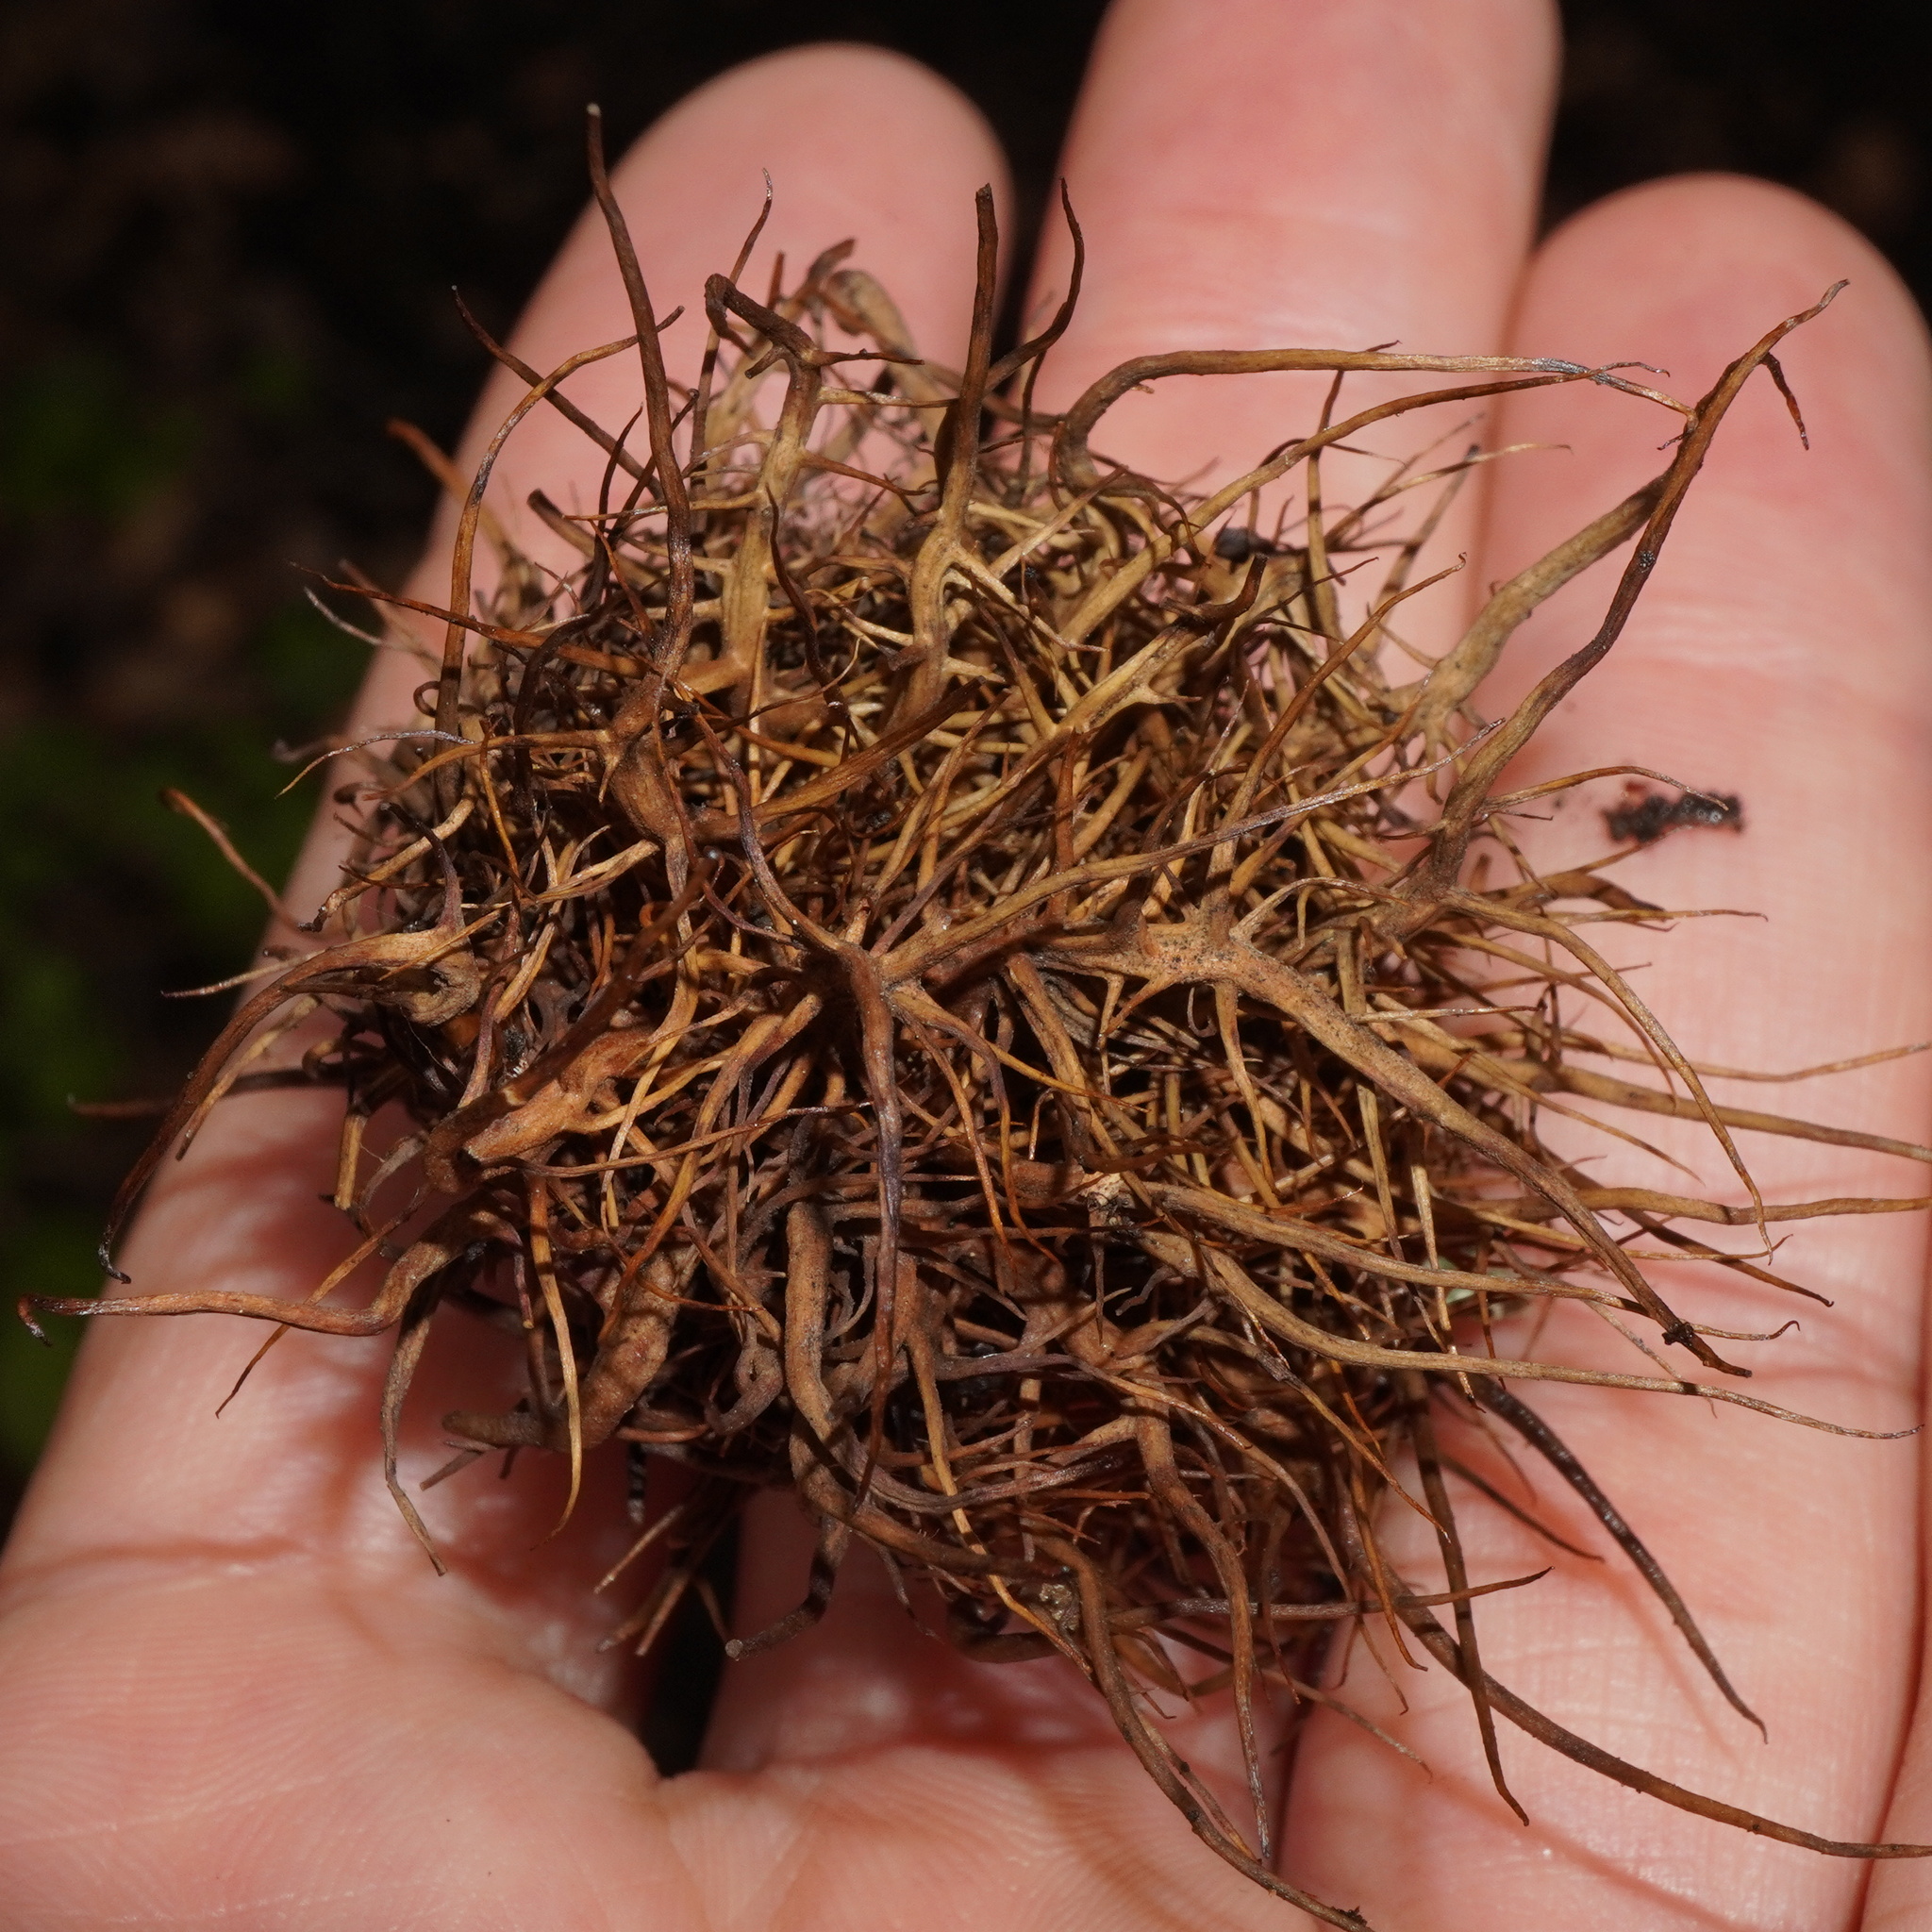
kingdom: Animalia
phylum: Arthropoda
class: Insecta
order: Hymenoptera
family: Cynipidae
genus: Andricus
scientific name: Andricus caputmedusae
